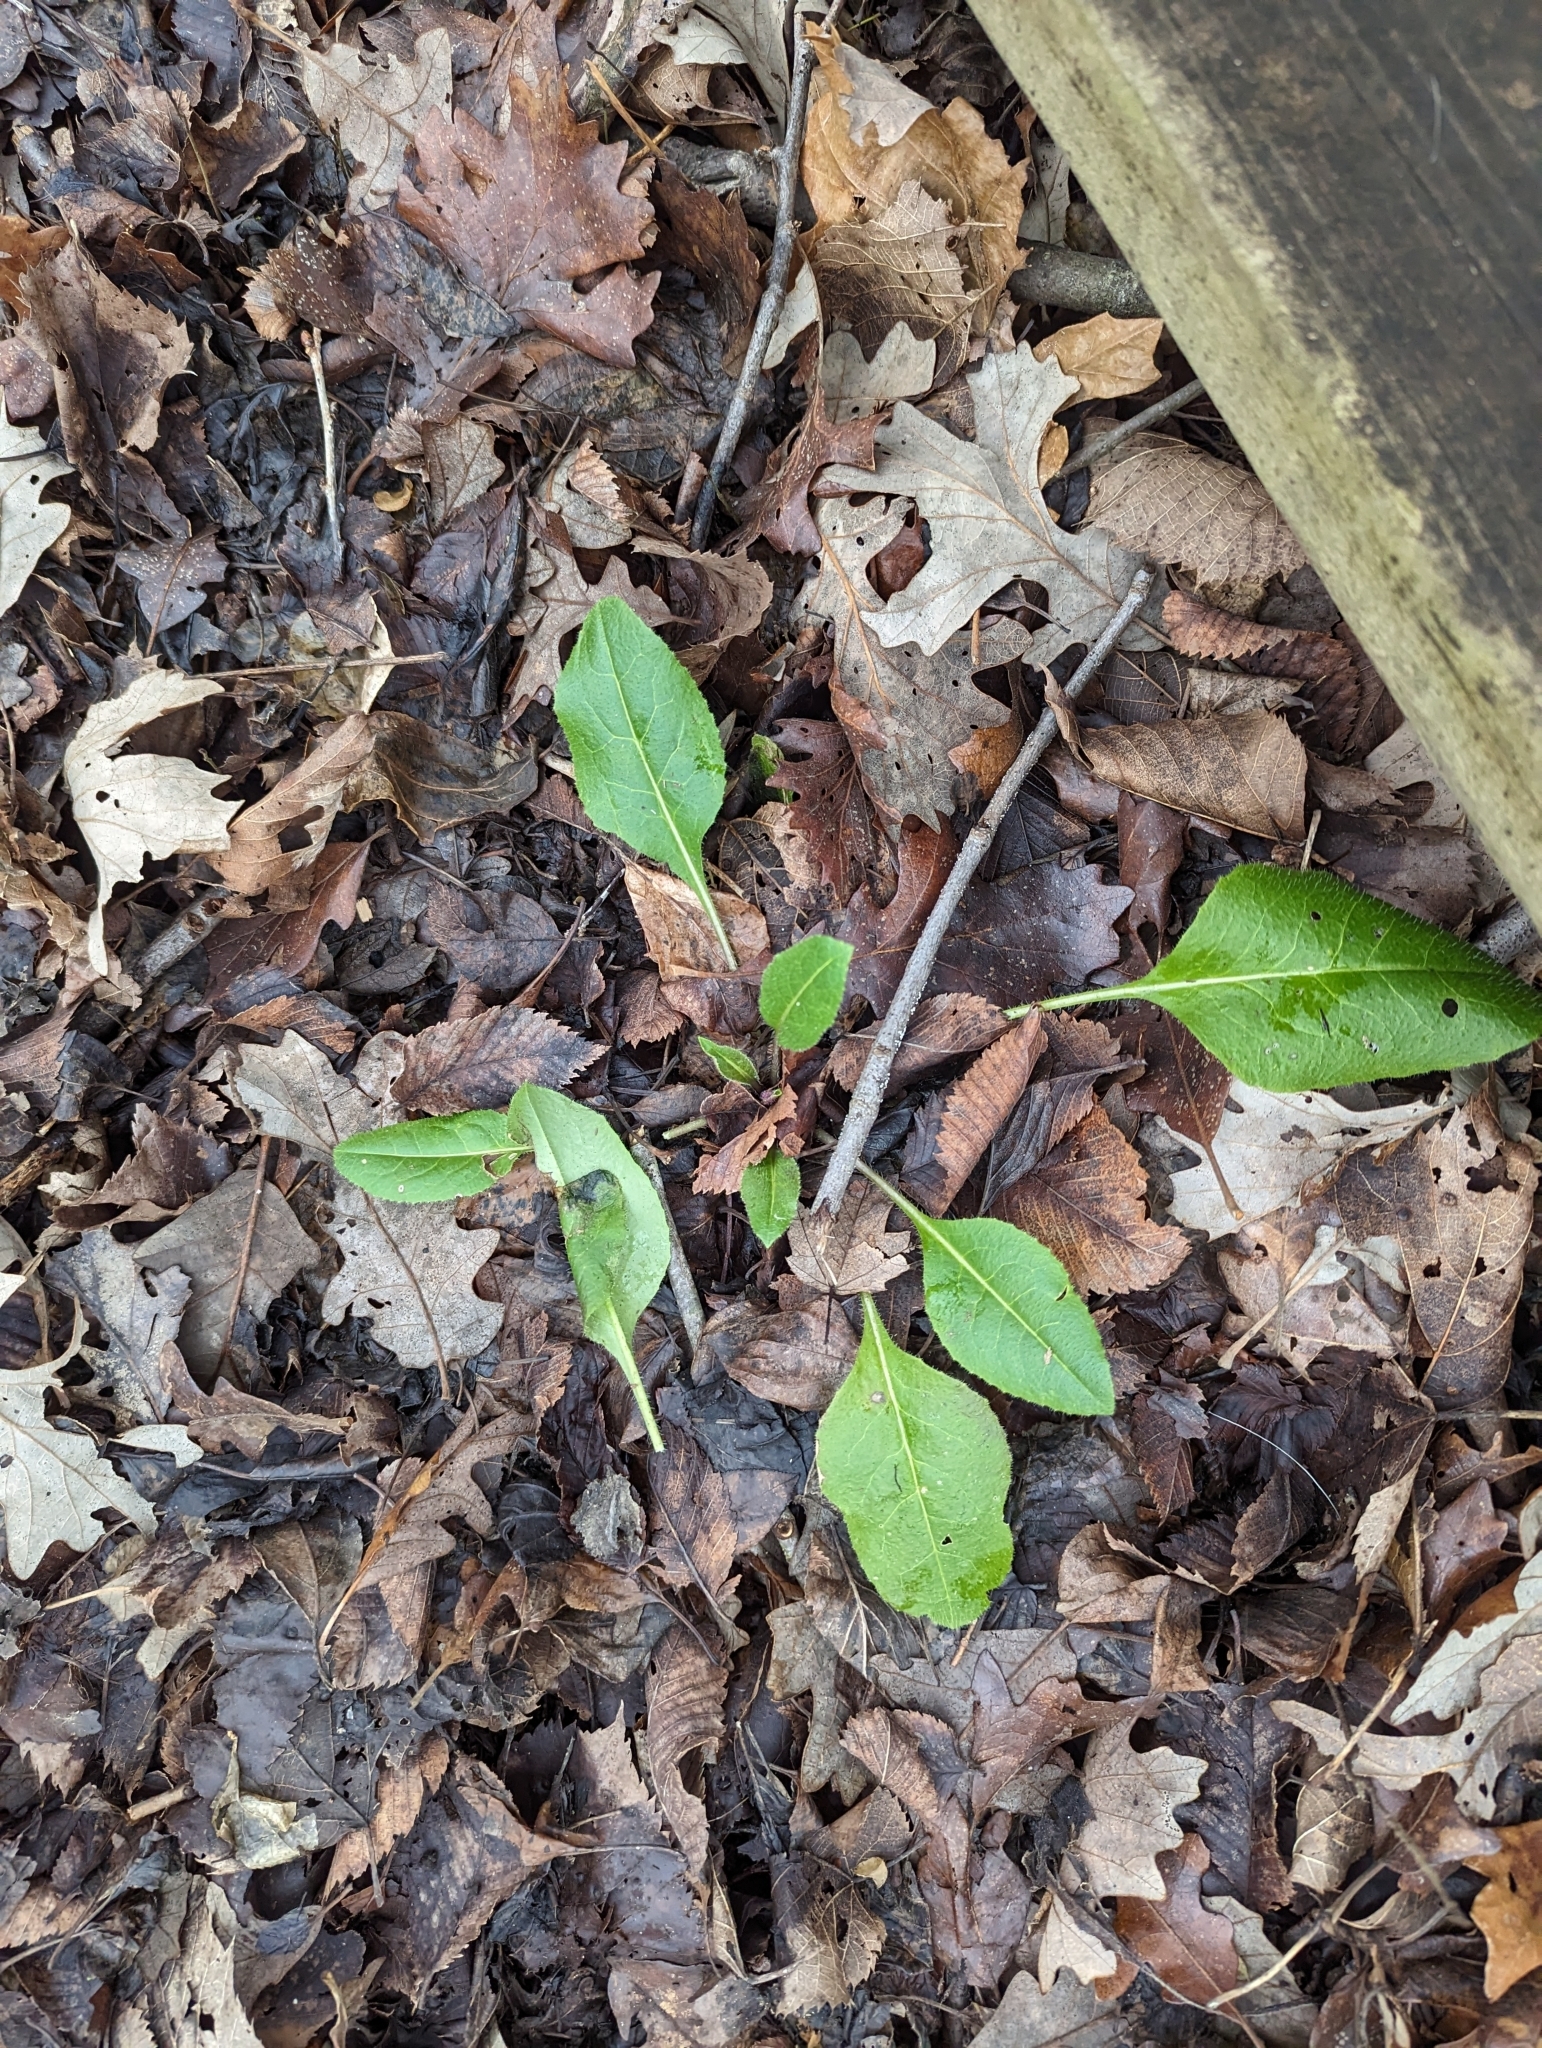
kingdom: Plantae
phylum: Tracheophyta
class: Magnoliopsida
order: Brassicales
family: Brassicaceae
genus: Hesperis
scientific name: Hesperis matronalis
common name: Dame's-violet
